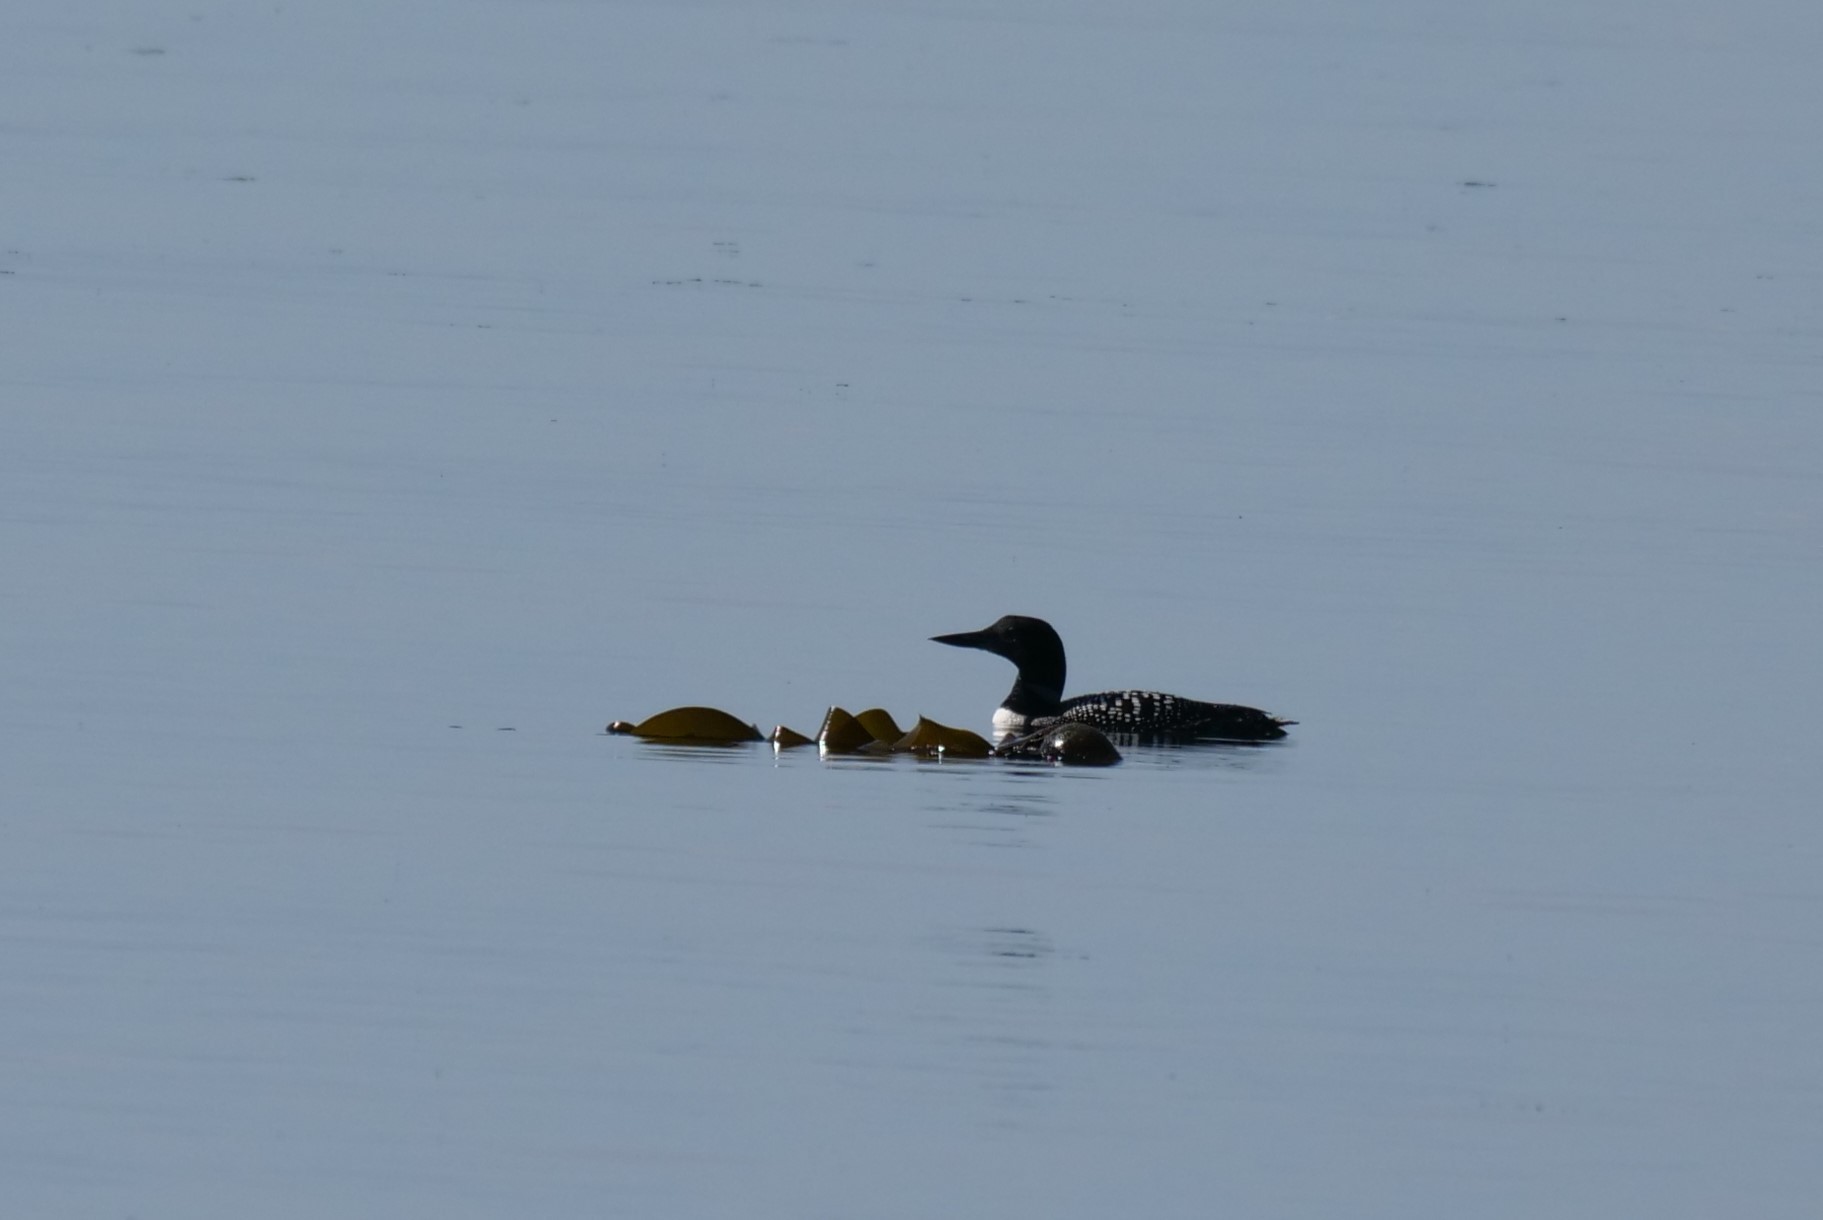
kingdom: Animalia
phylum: Chordata
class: Aves
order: Gaviiformes
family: Gaviidae
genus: Gavia
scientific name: Gavia immer
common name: Common loon
